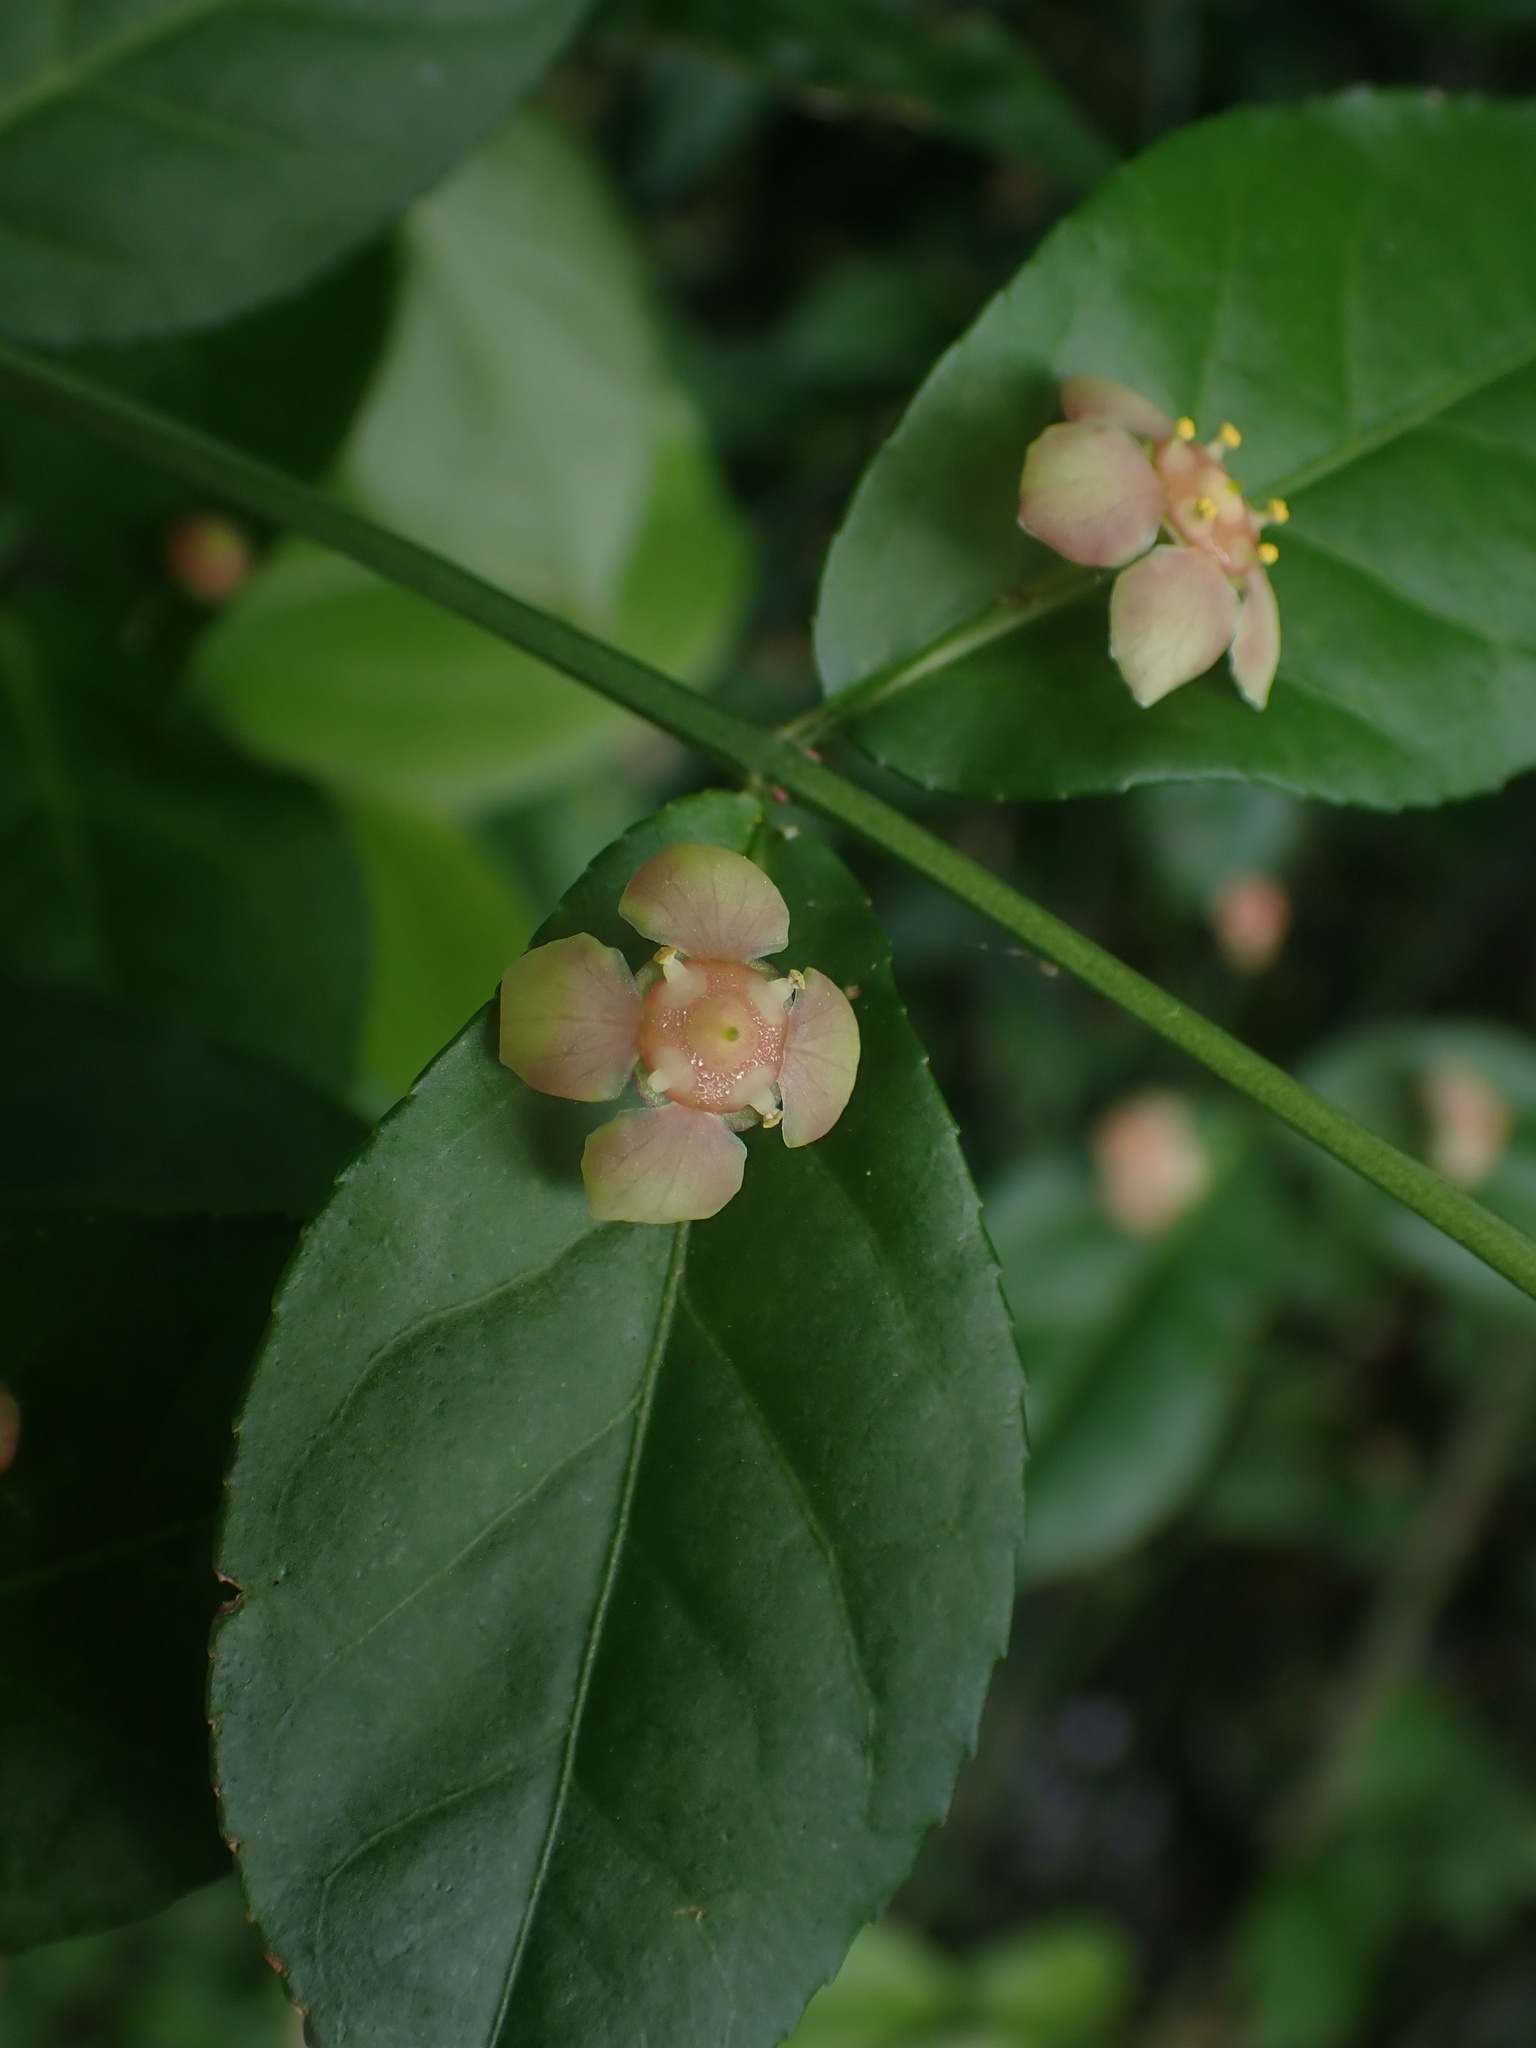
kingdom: Plantae
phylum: Tracheophyta
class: Magnoliopsida
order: Celastrales
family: Celastraceae
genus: Euonymus
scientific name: Euonymus americanus
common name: Bursting-heart
